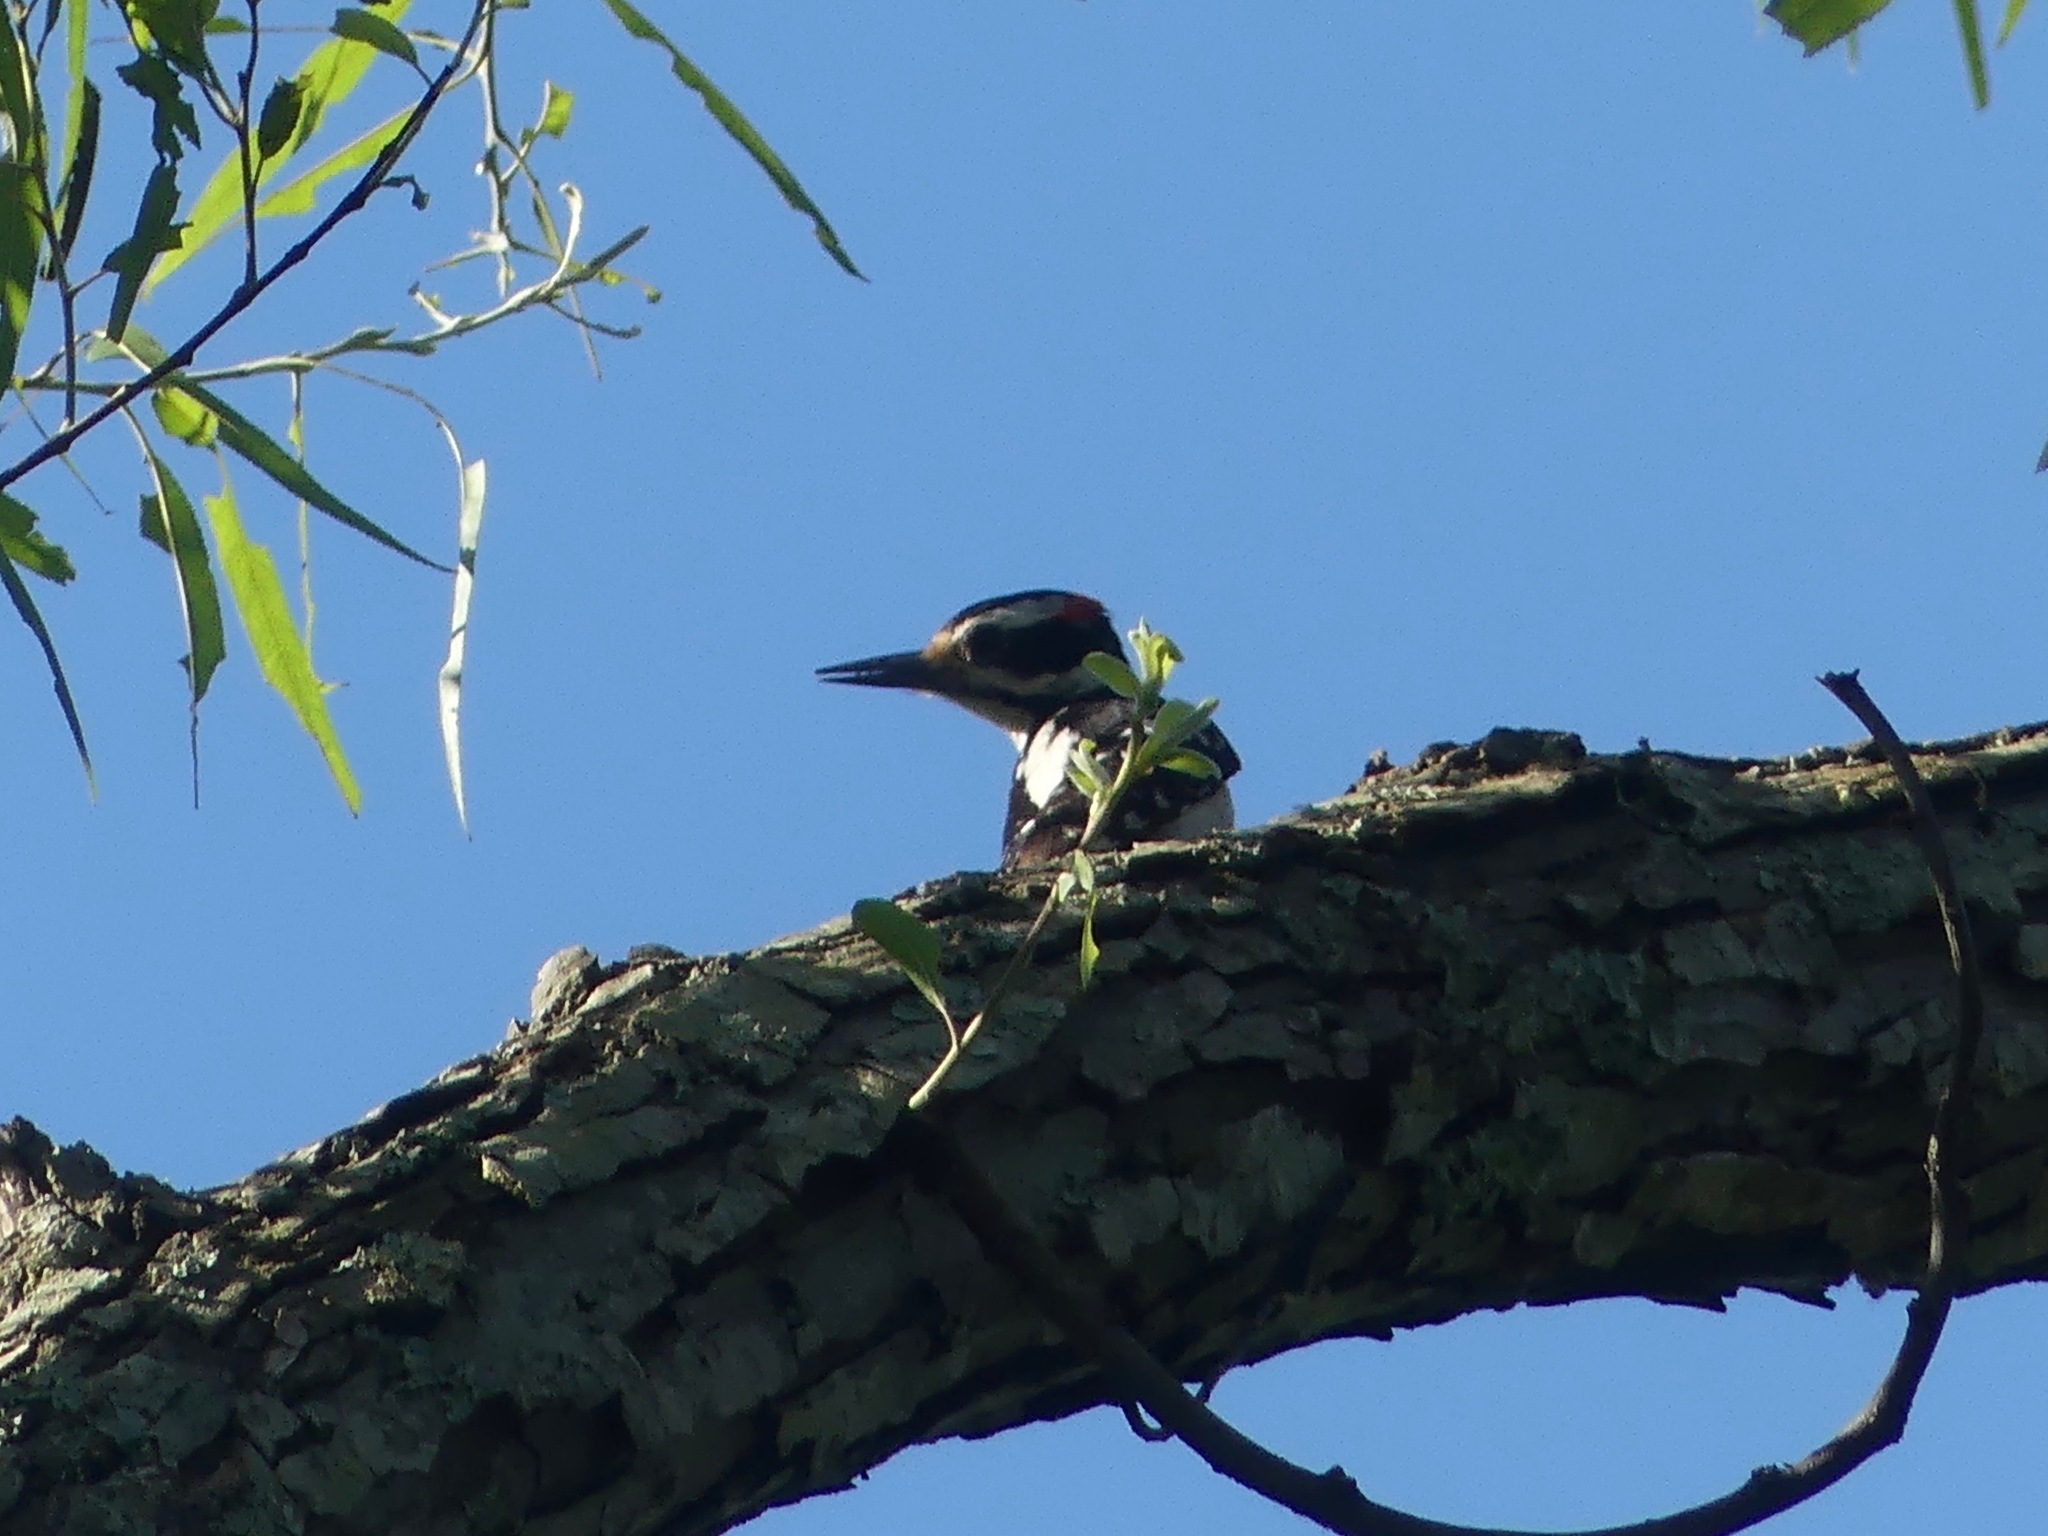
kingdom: Animalia
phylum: Chordata
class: Aves
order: Piciformes
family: Picidae
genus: Leuconotopicus
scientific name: Leuconotopicus villosus
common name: Hairy woodpecker
